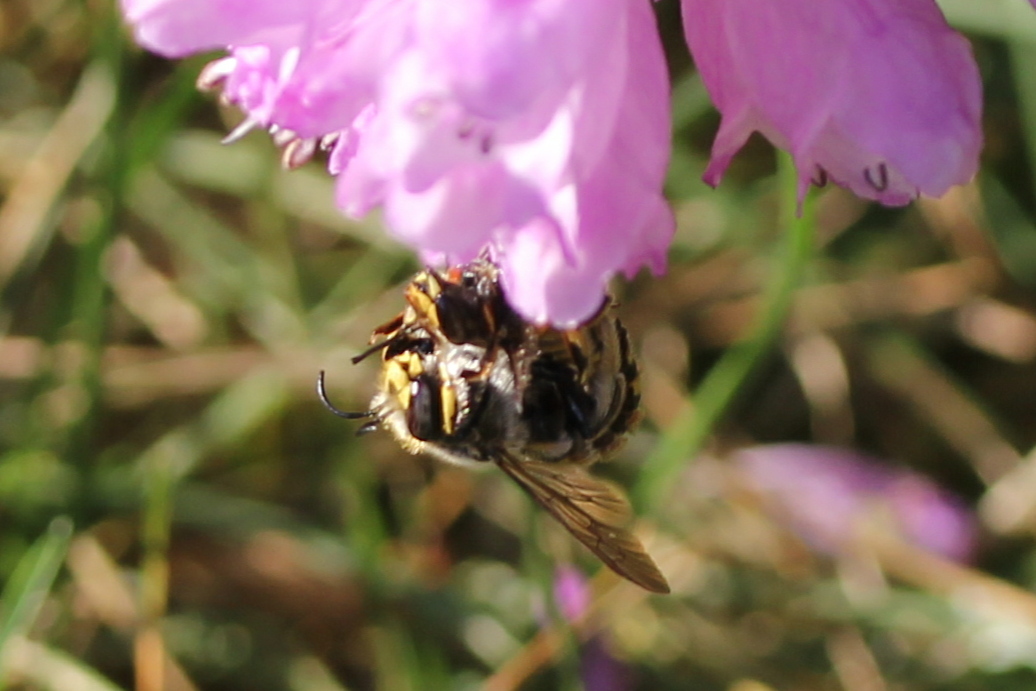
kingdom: Animalia
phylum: Arthropoda
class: Insecta
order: Hymenoptera
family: Megachilidae
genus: Anthidium
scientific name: Anthidium manicatum
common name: Wool carder bee
